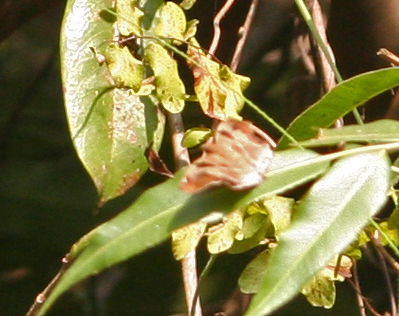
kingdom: Animalia
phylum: Arthropoda
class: Insecta
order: Lepidoptera
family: Hesperiidae
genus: Odontoptilum
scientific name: Odontoptilum angulata
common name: Chestnut banded angle
